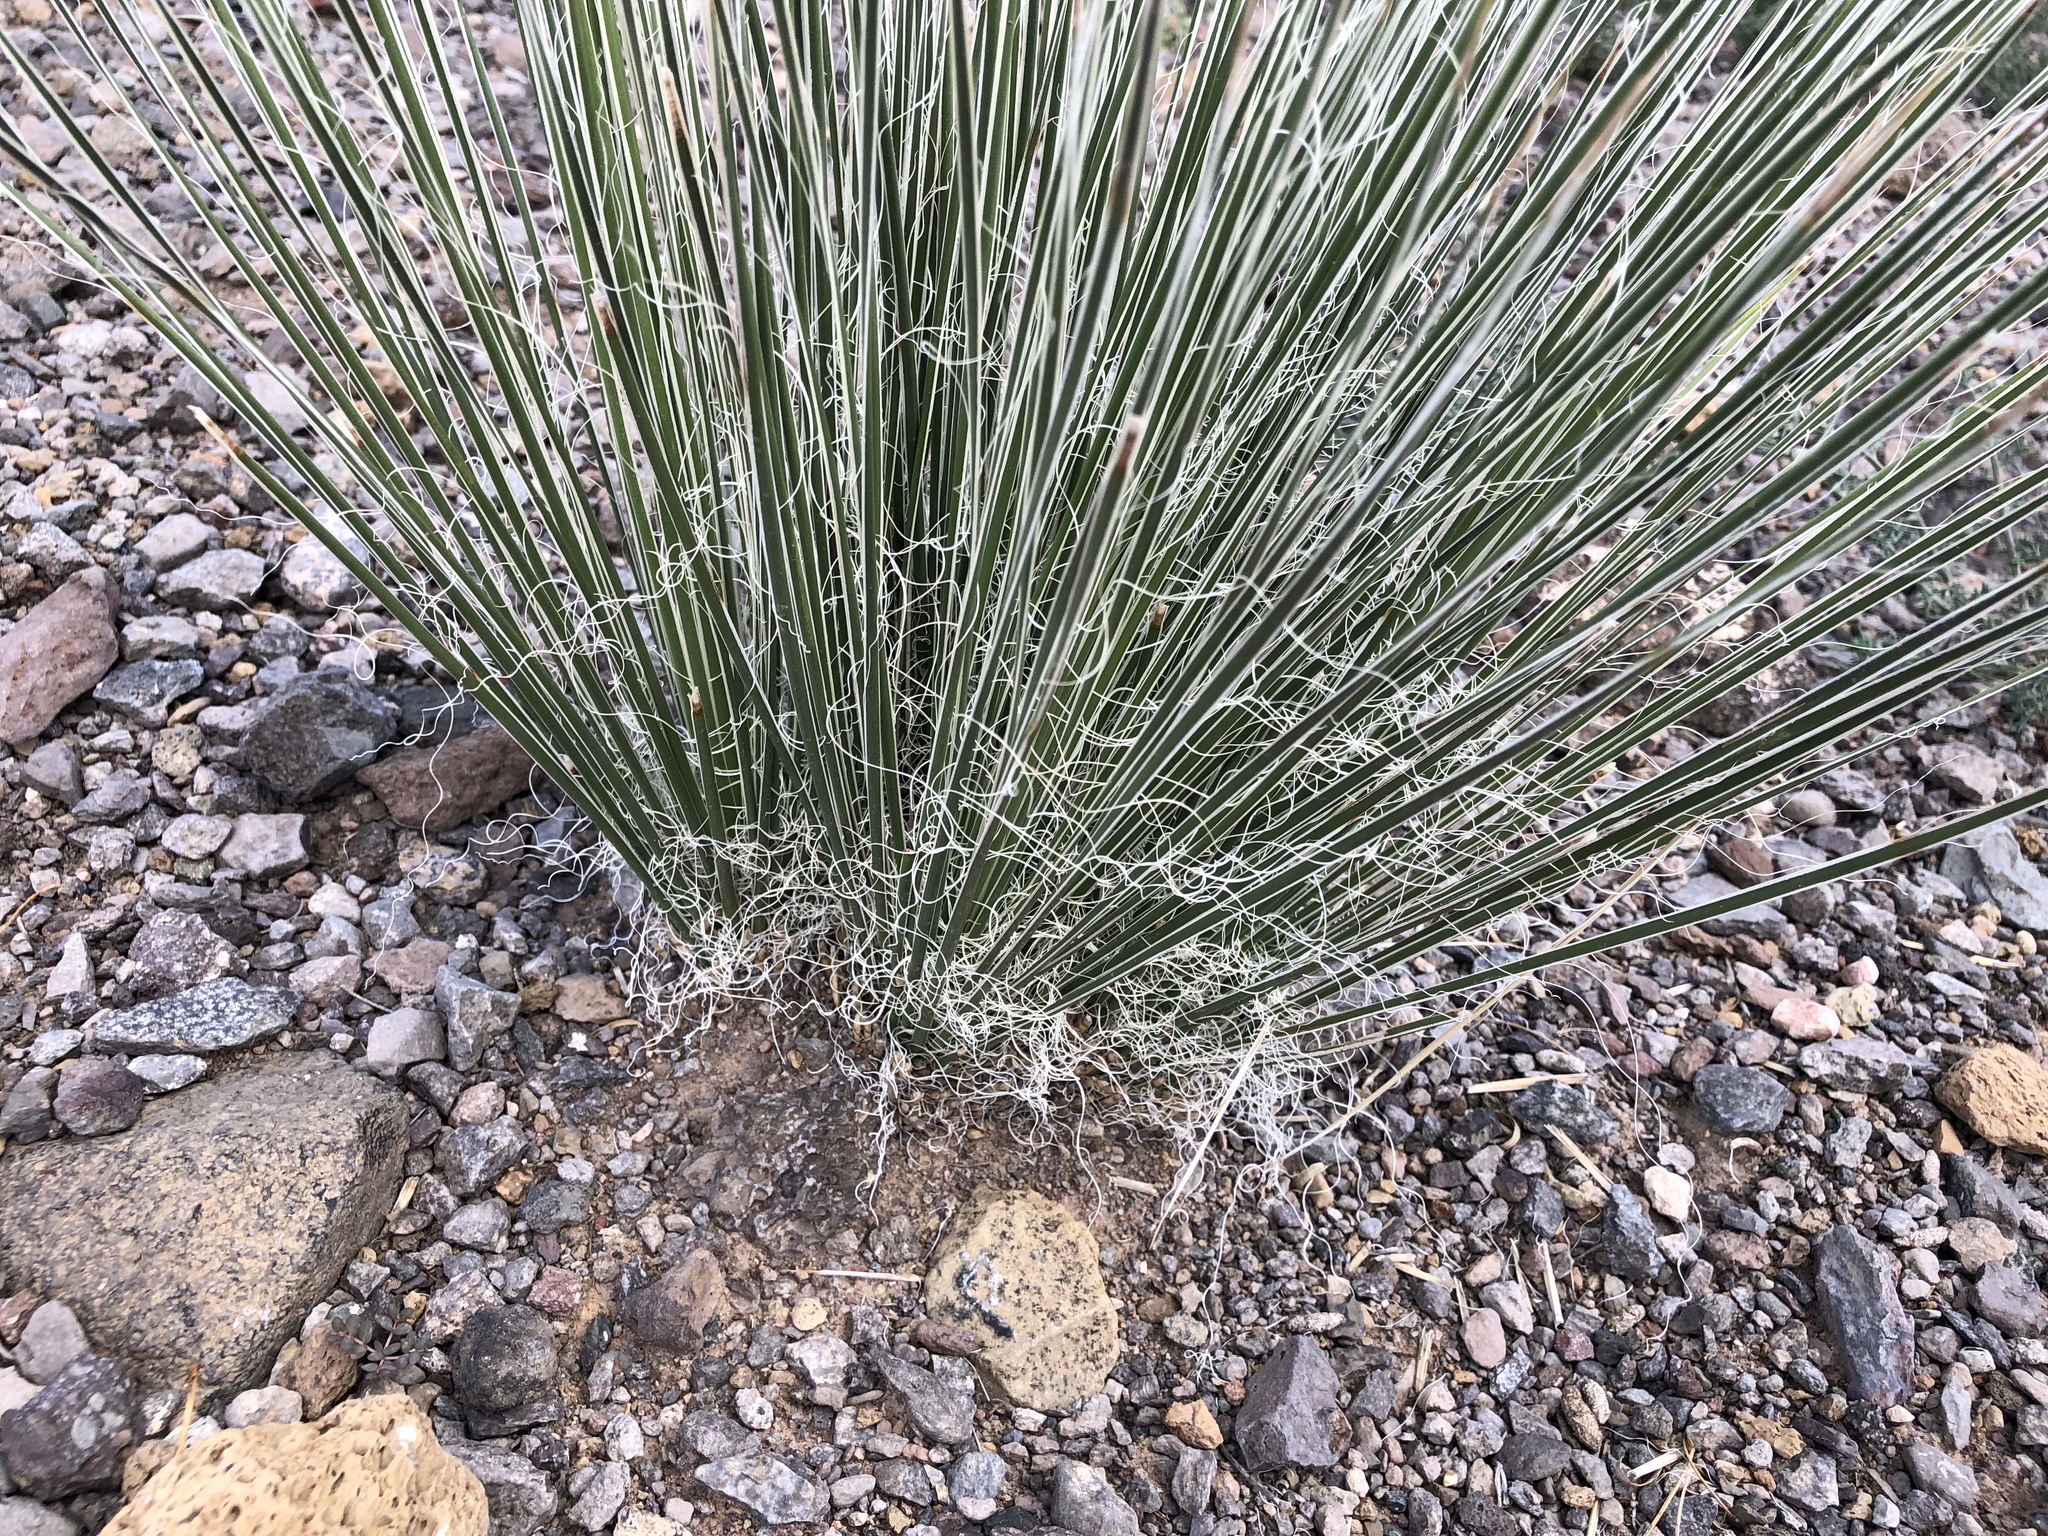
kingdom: Plantae
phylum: Tracheophyta
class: Liliopsida
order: Asparagales
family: Asparagaceae
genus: Yucca
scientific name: Yucca elata
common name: Palmella
